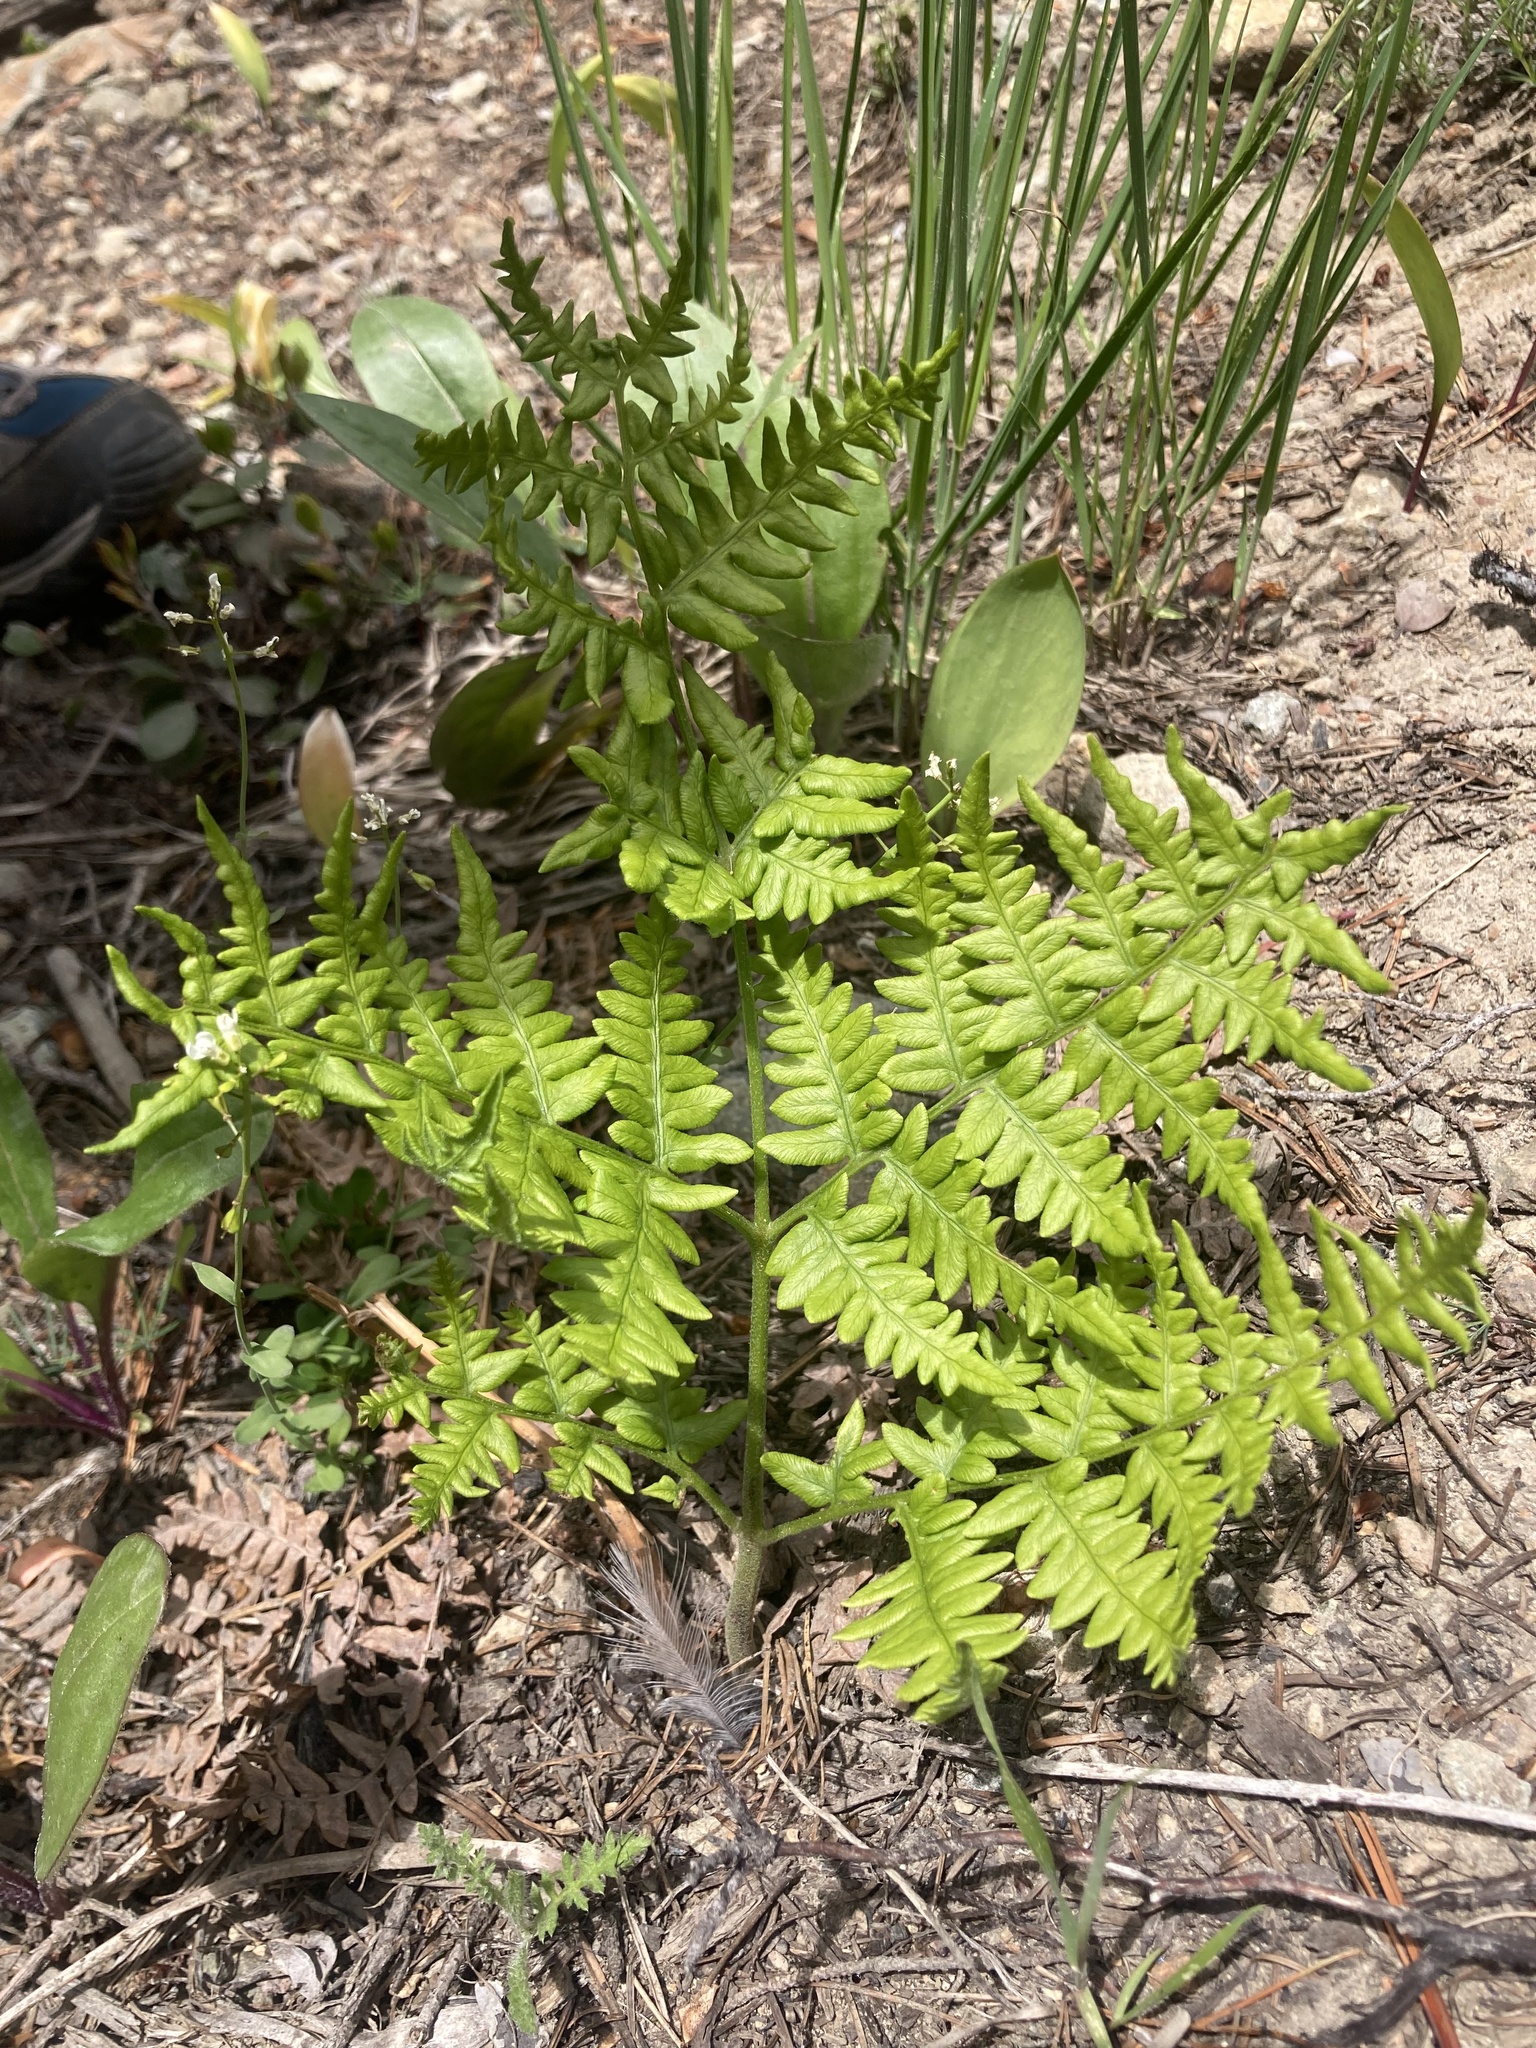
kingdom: Plantae
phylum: Tracheophyta
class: Polypodiopsida
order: Polypodiales
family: Dennstaedtiaceae
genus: Pteridium
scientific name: Pteridium aquilinum
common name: Bracken
